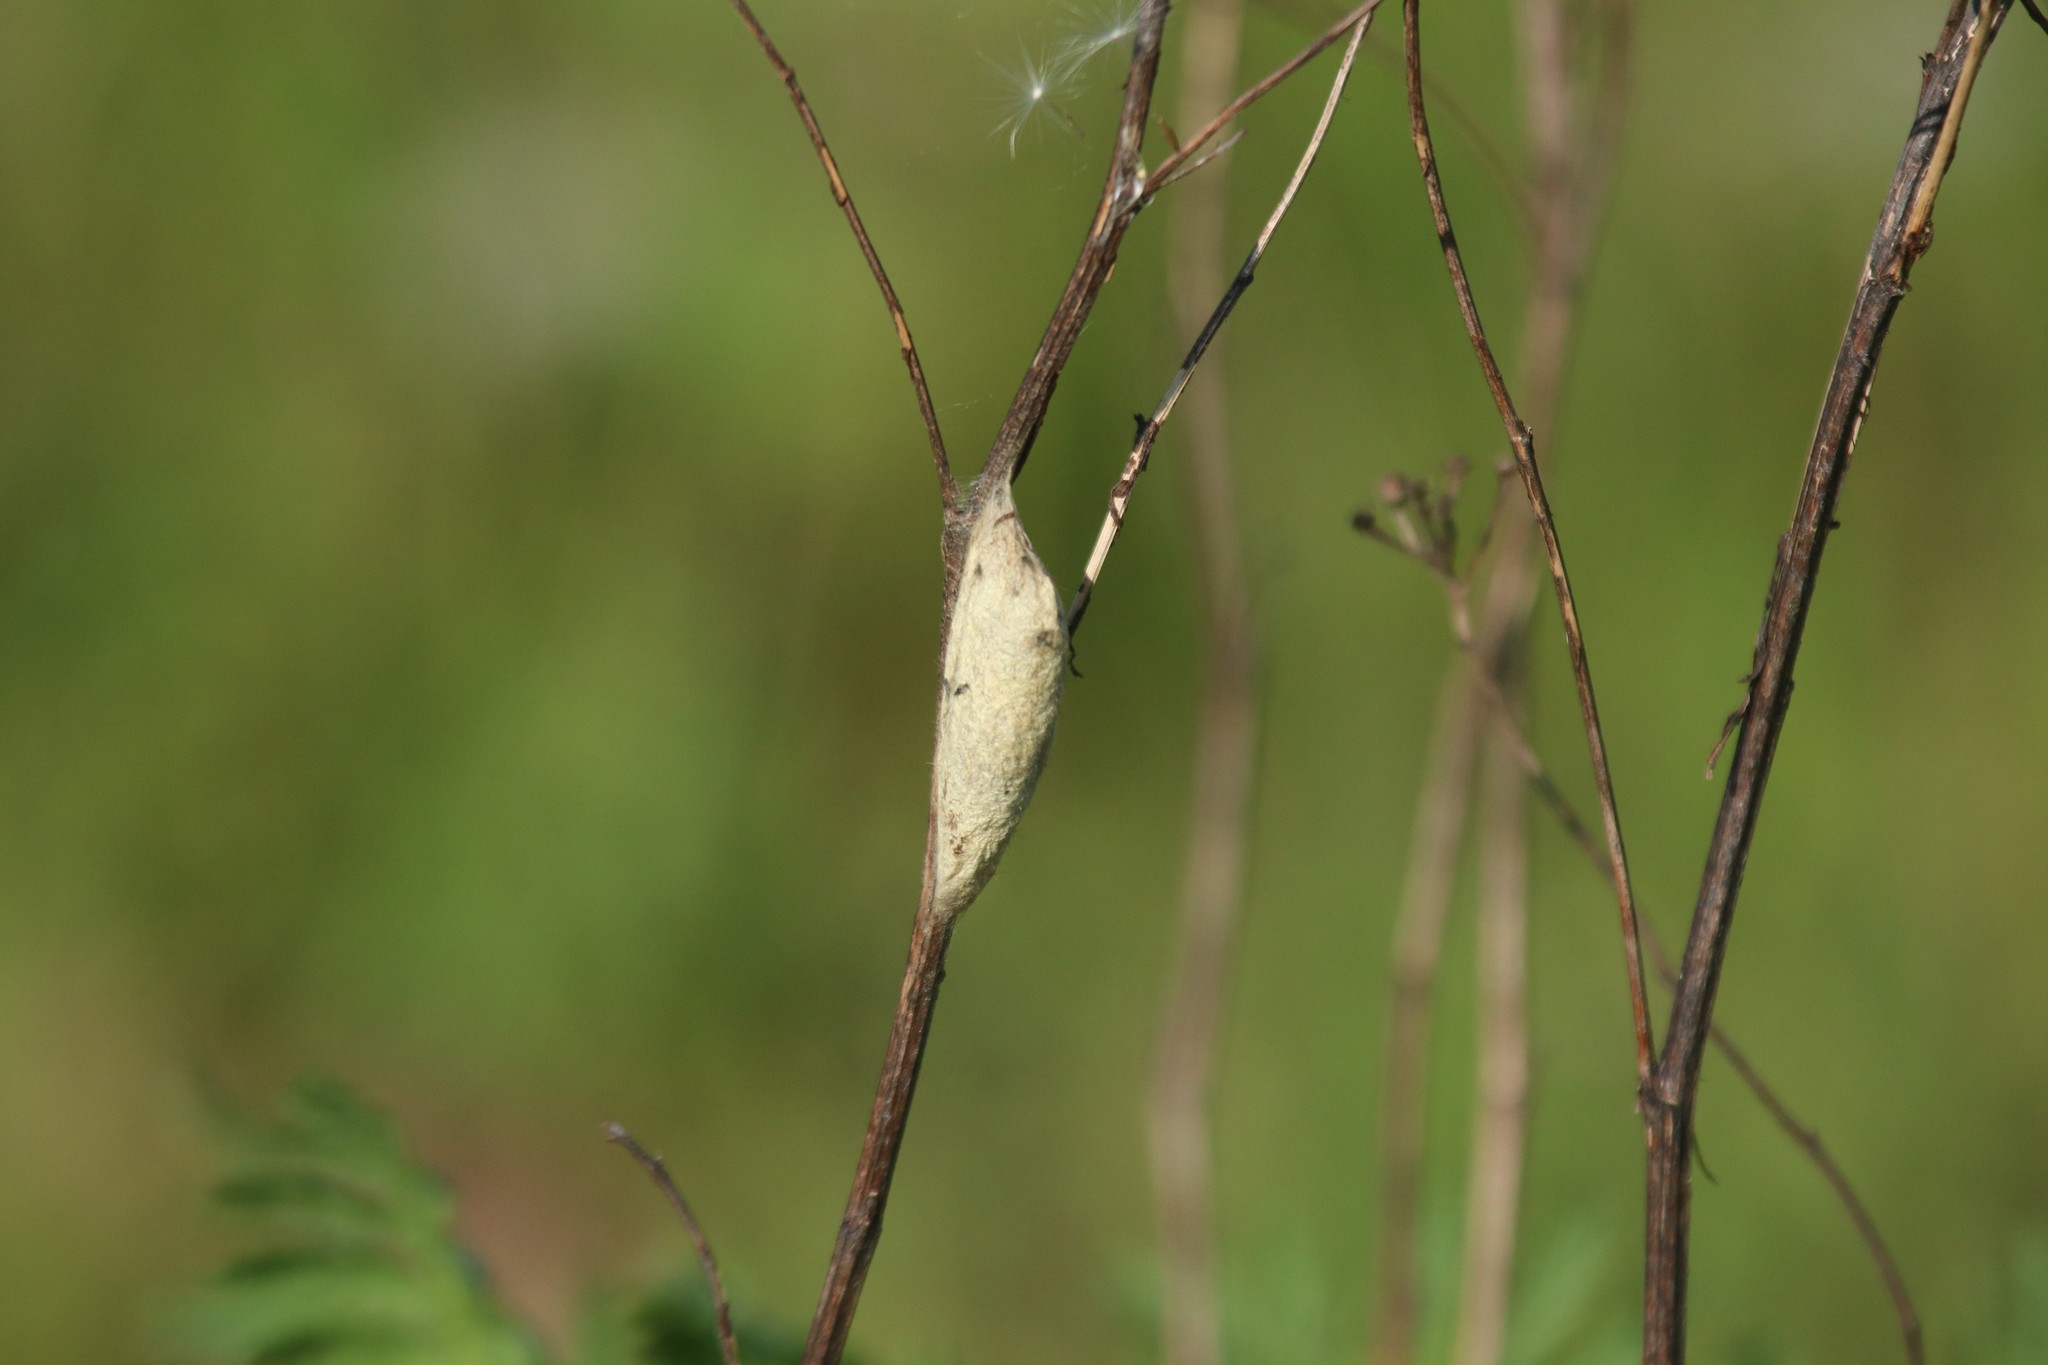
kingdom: Animalia
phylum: Arthropoda
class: Insecta
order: Lepidoptera
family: Lasiocampidae
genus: Euthrix
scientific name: Euthrix potatoria
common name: Drinker
